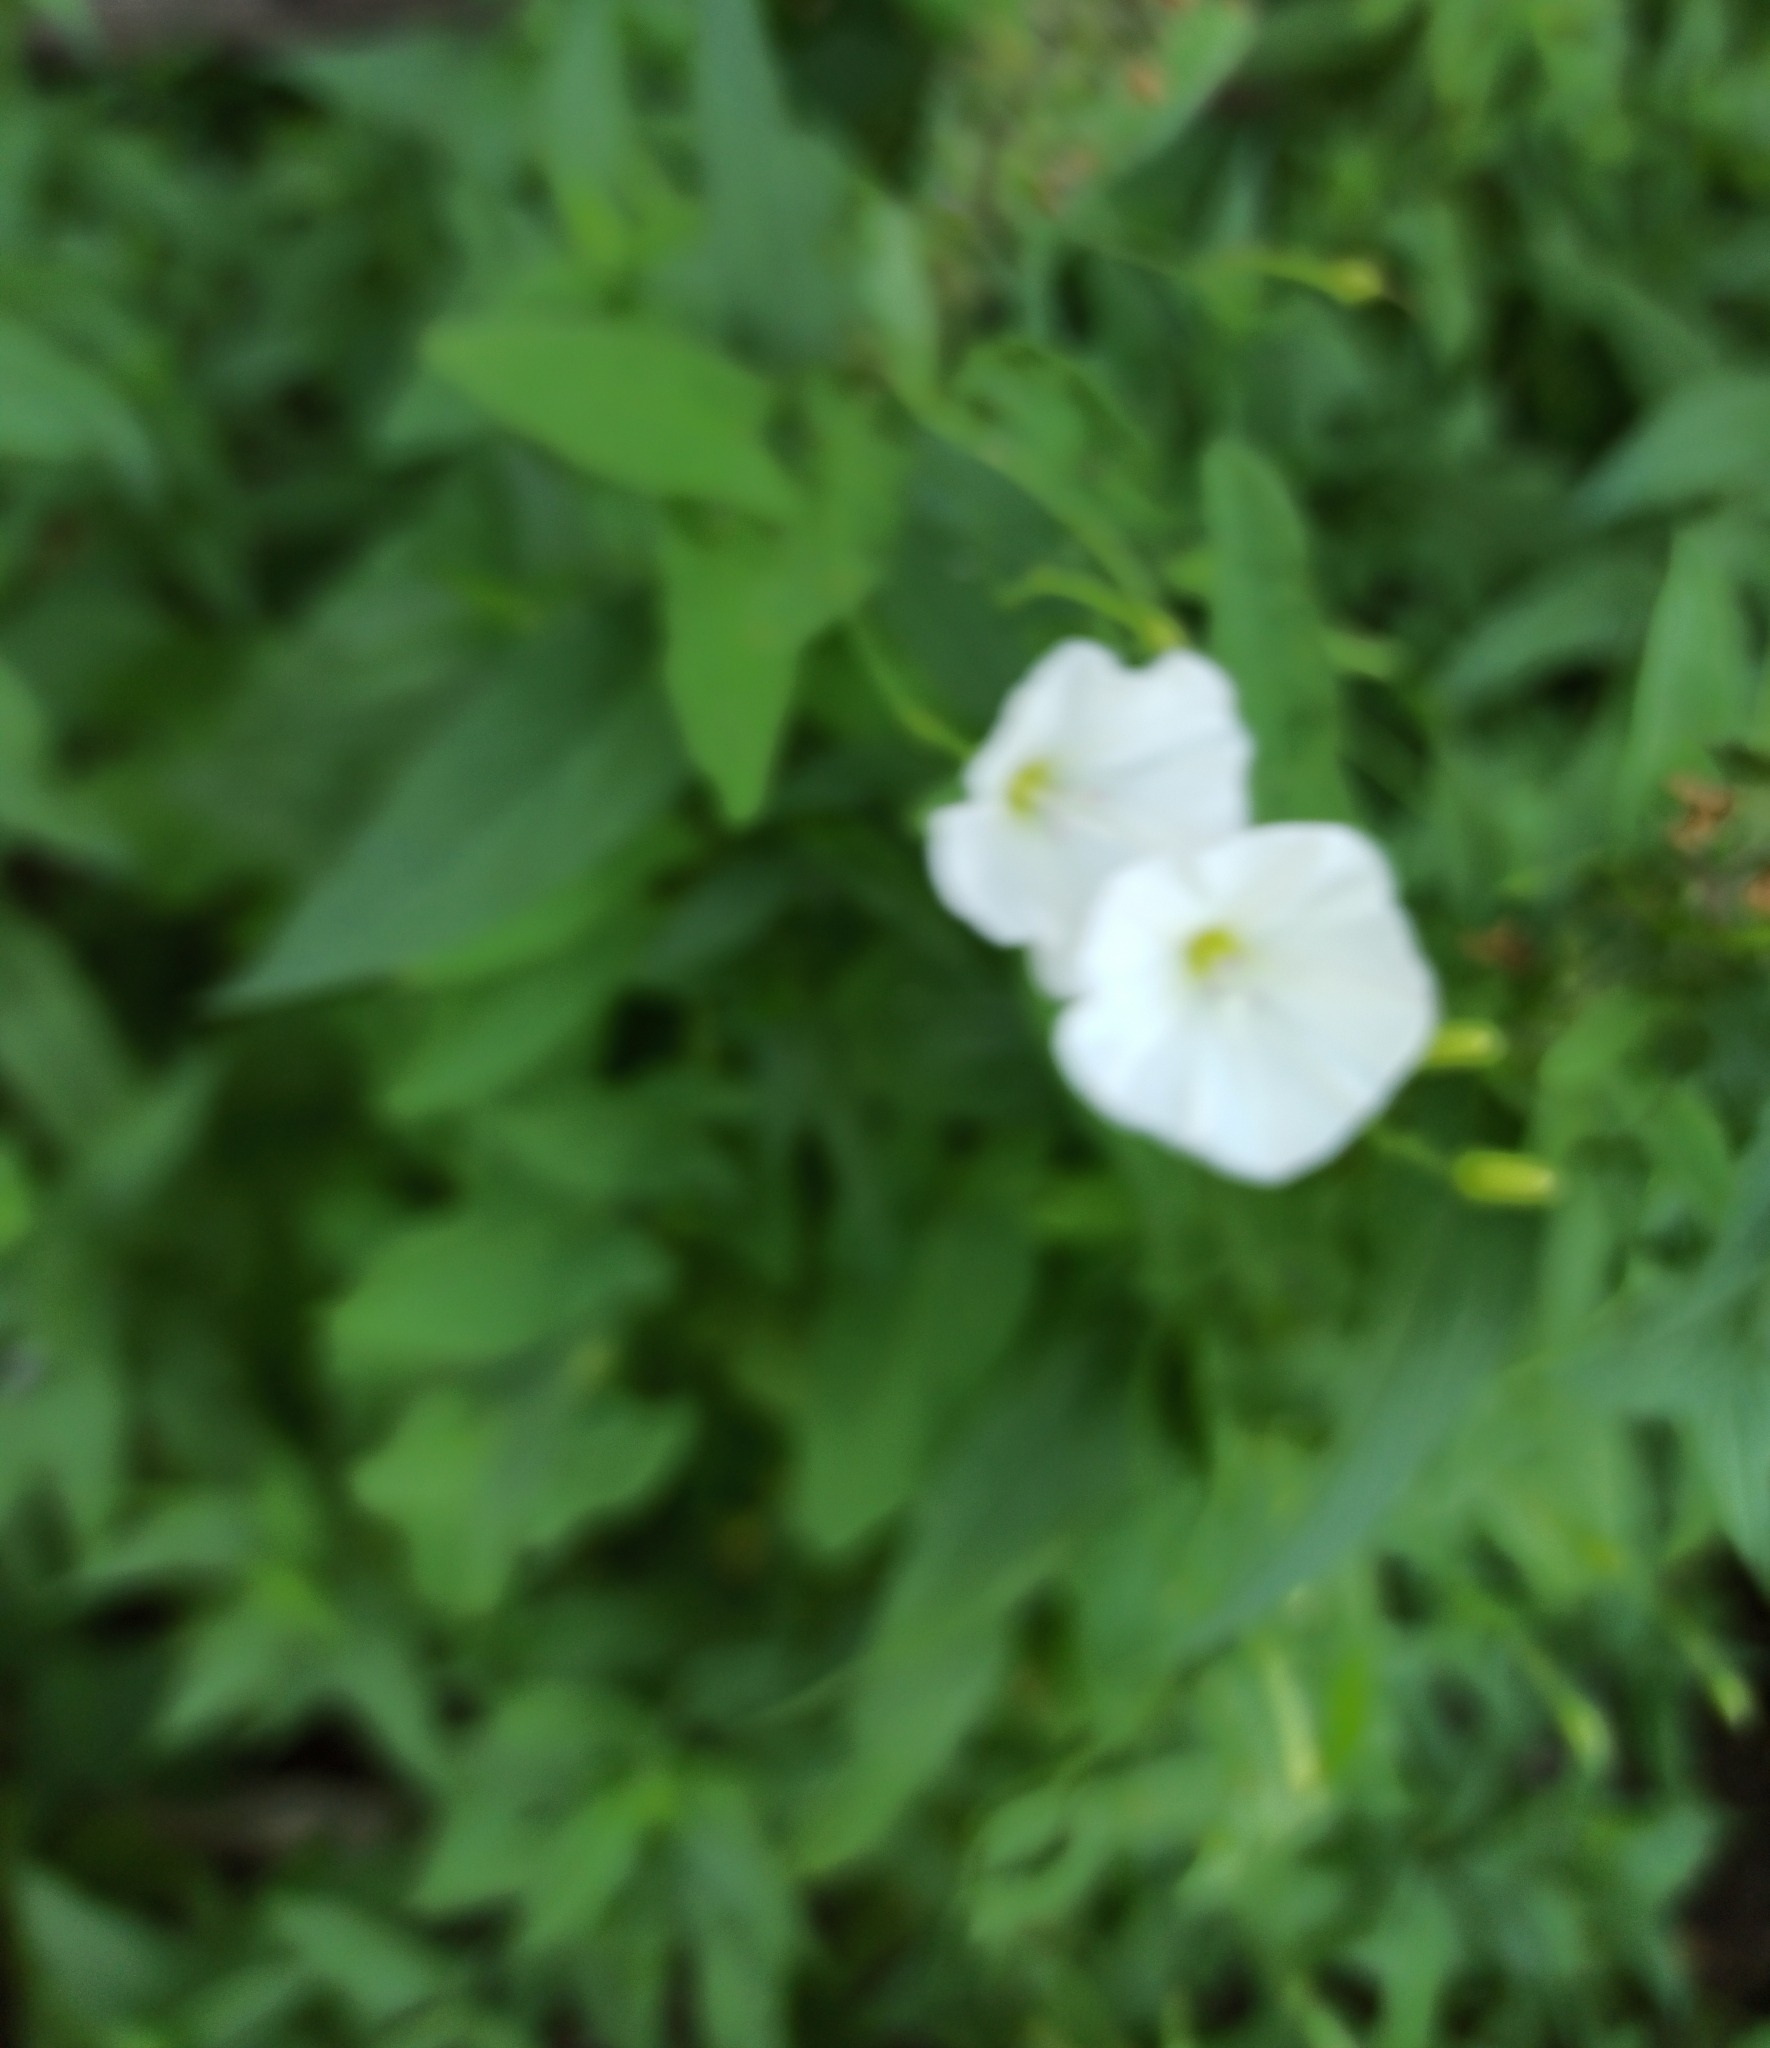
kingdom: Plantae
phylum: Tracheophyta
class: Magnoliopsida
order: Solanales
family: Convolvulaceae
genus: Calystegia
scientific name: Calystegia sepium
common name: Hedge bindweed
